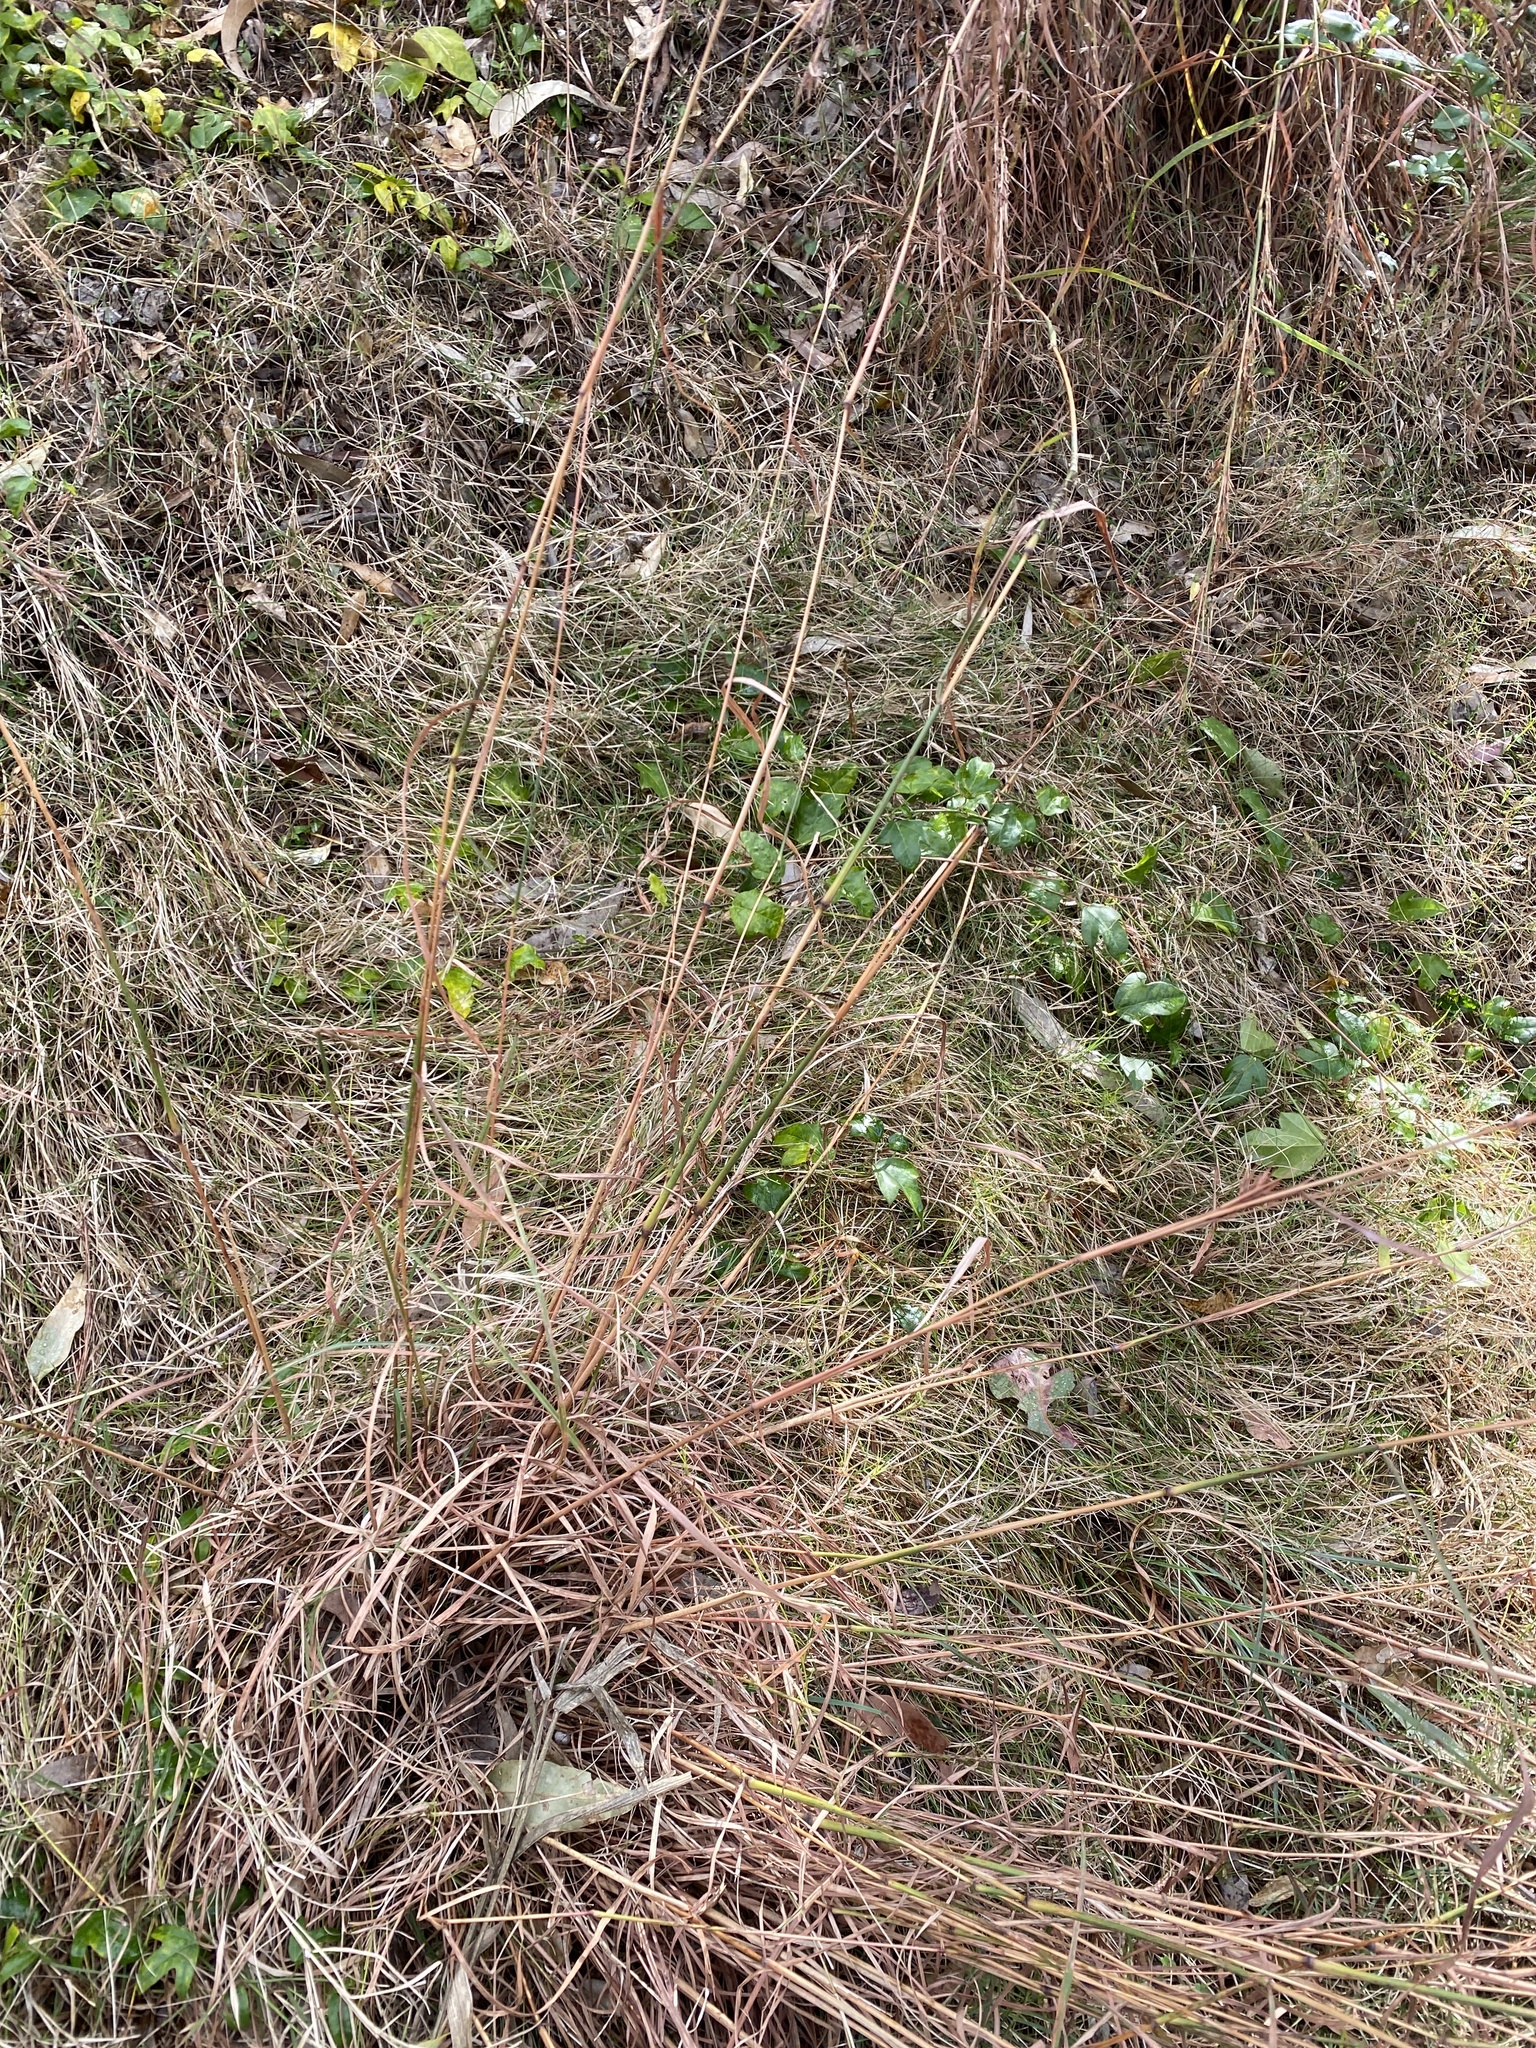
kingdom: Plantae
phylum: Tracheophyta
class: Liliopsida
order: Poales
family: Poaceae
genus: Cymbopogon
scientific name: Cymbopogon refractus
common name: Barbwire grass
